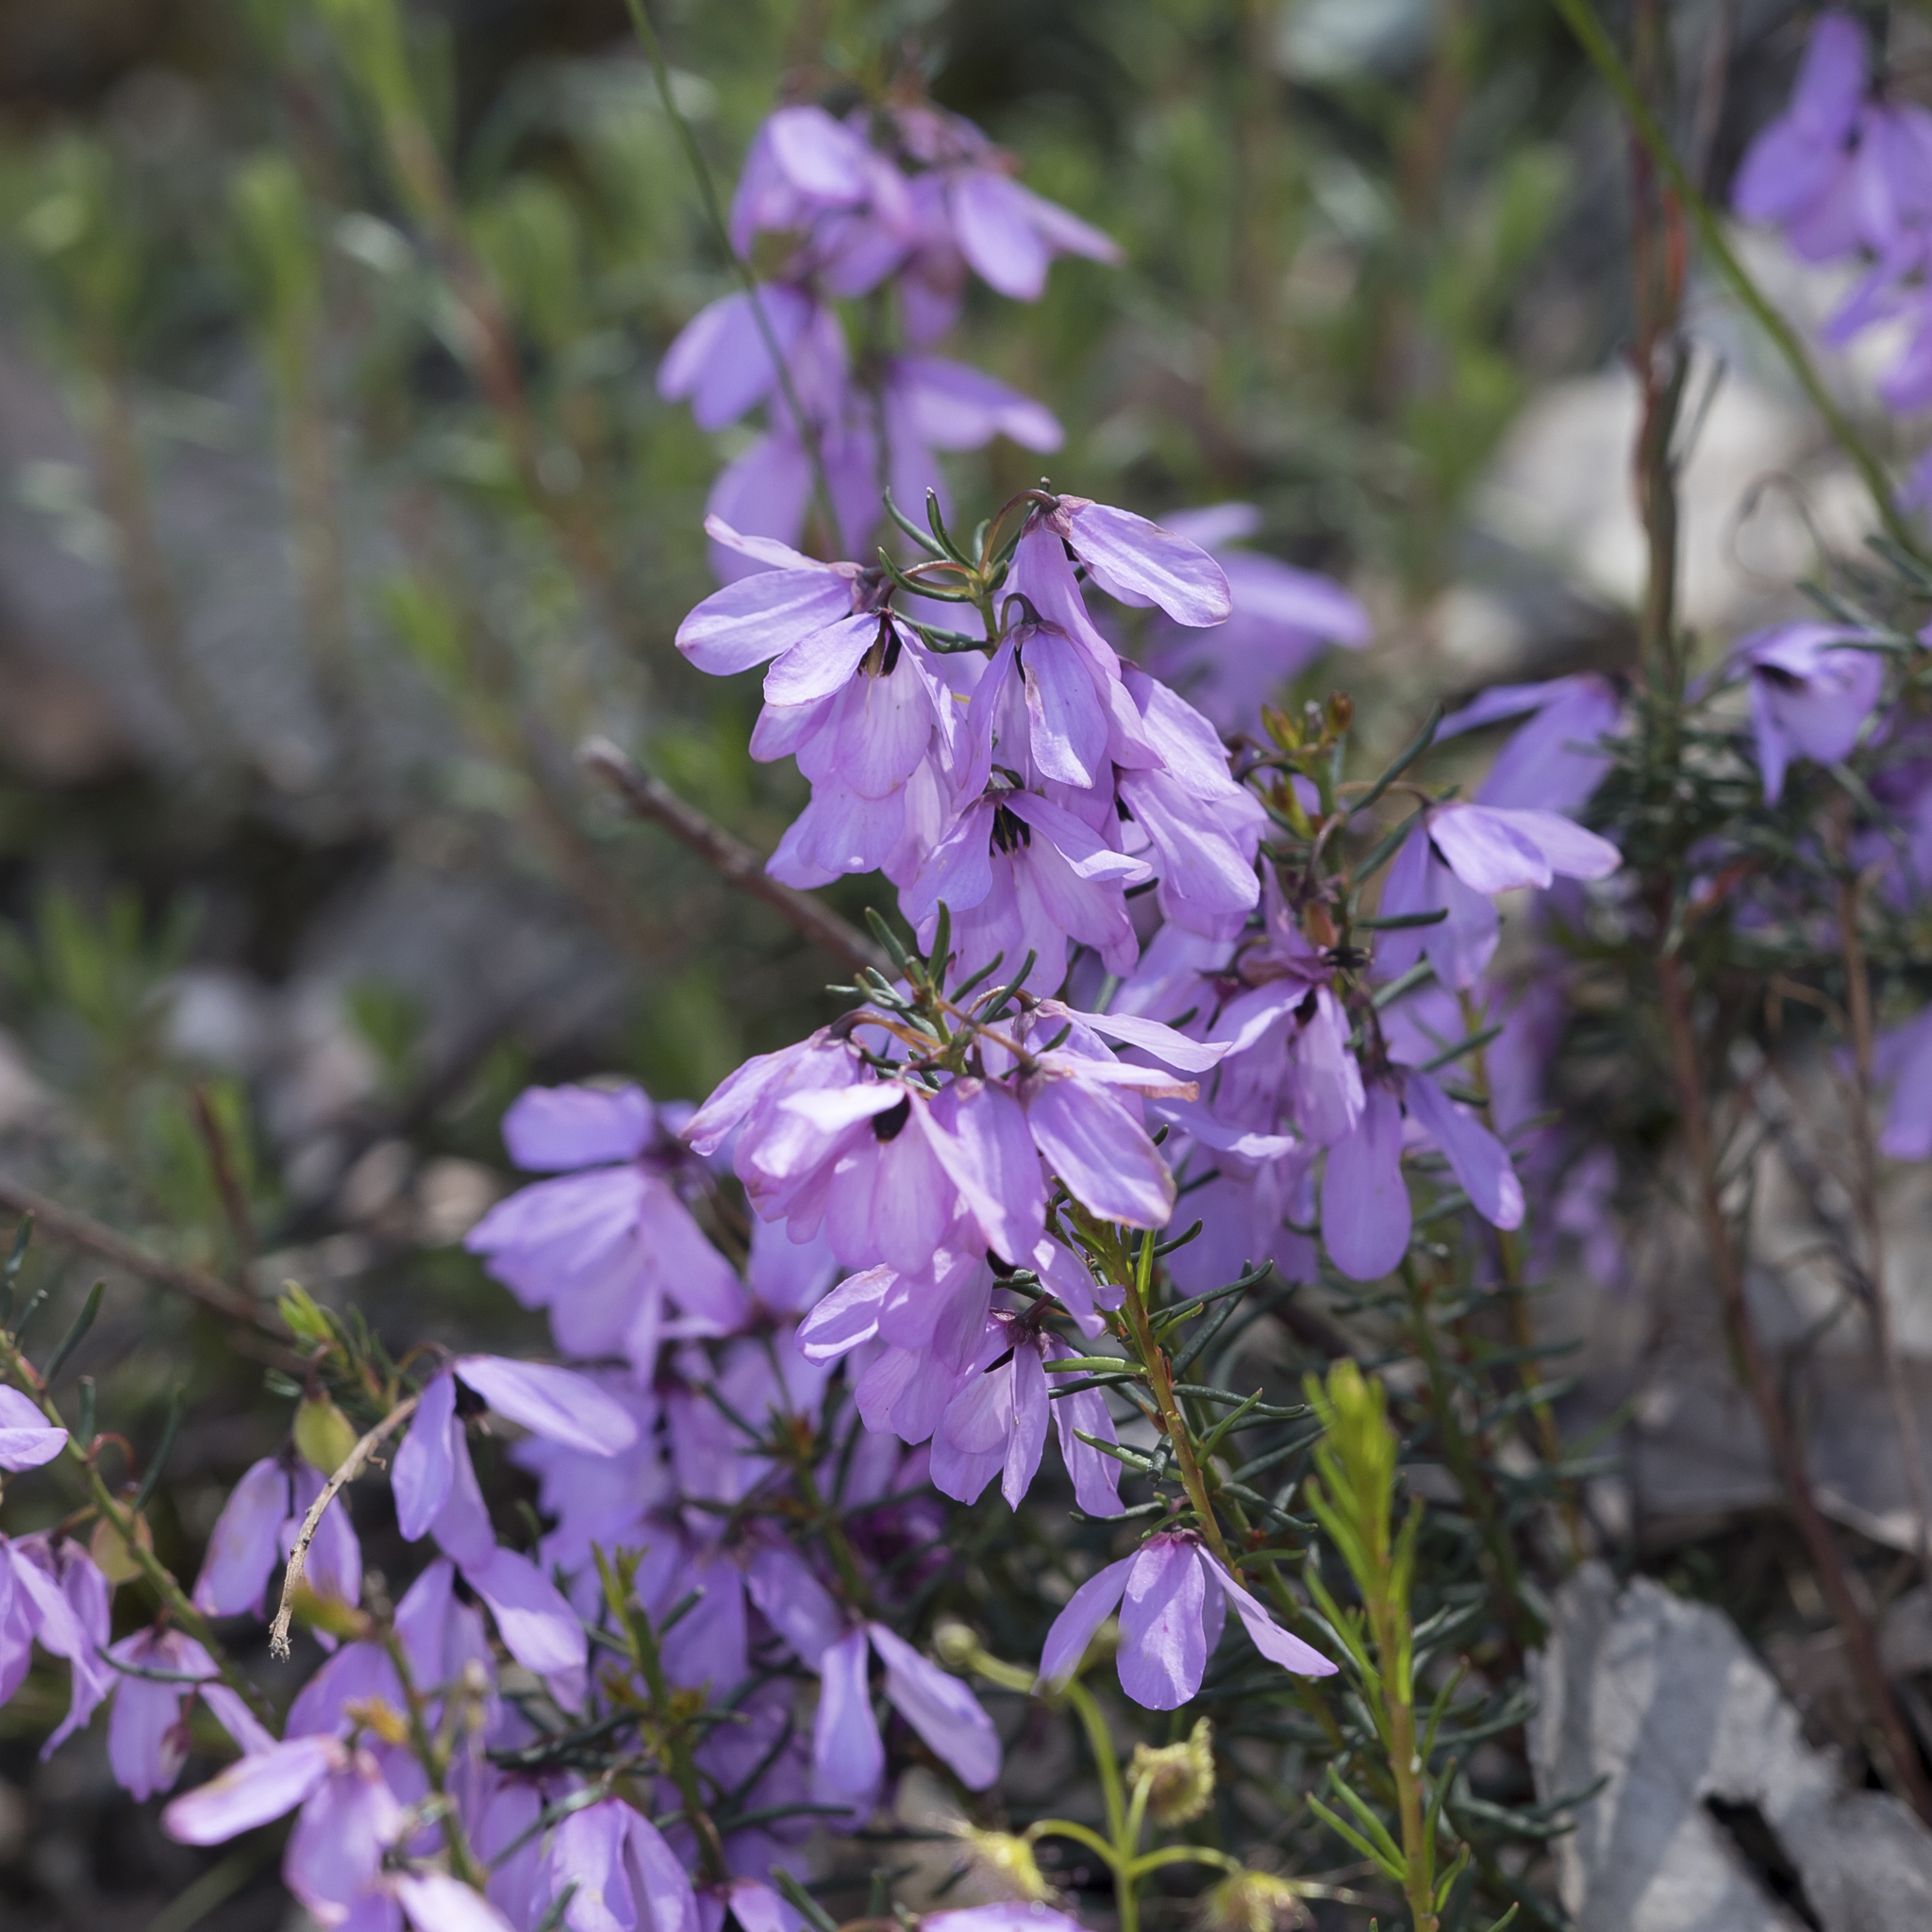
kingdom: Plantae
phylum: Tracheophyta
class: Magnoliopsida
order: Oxalidales
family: Elaeocarpaceae
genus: Tetratheca
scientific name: Tetratheca pilosa
